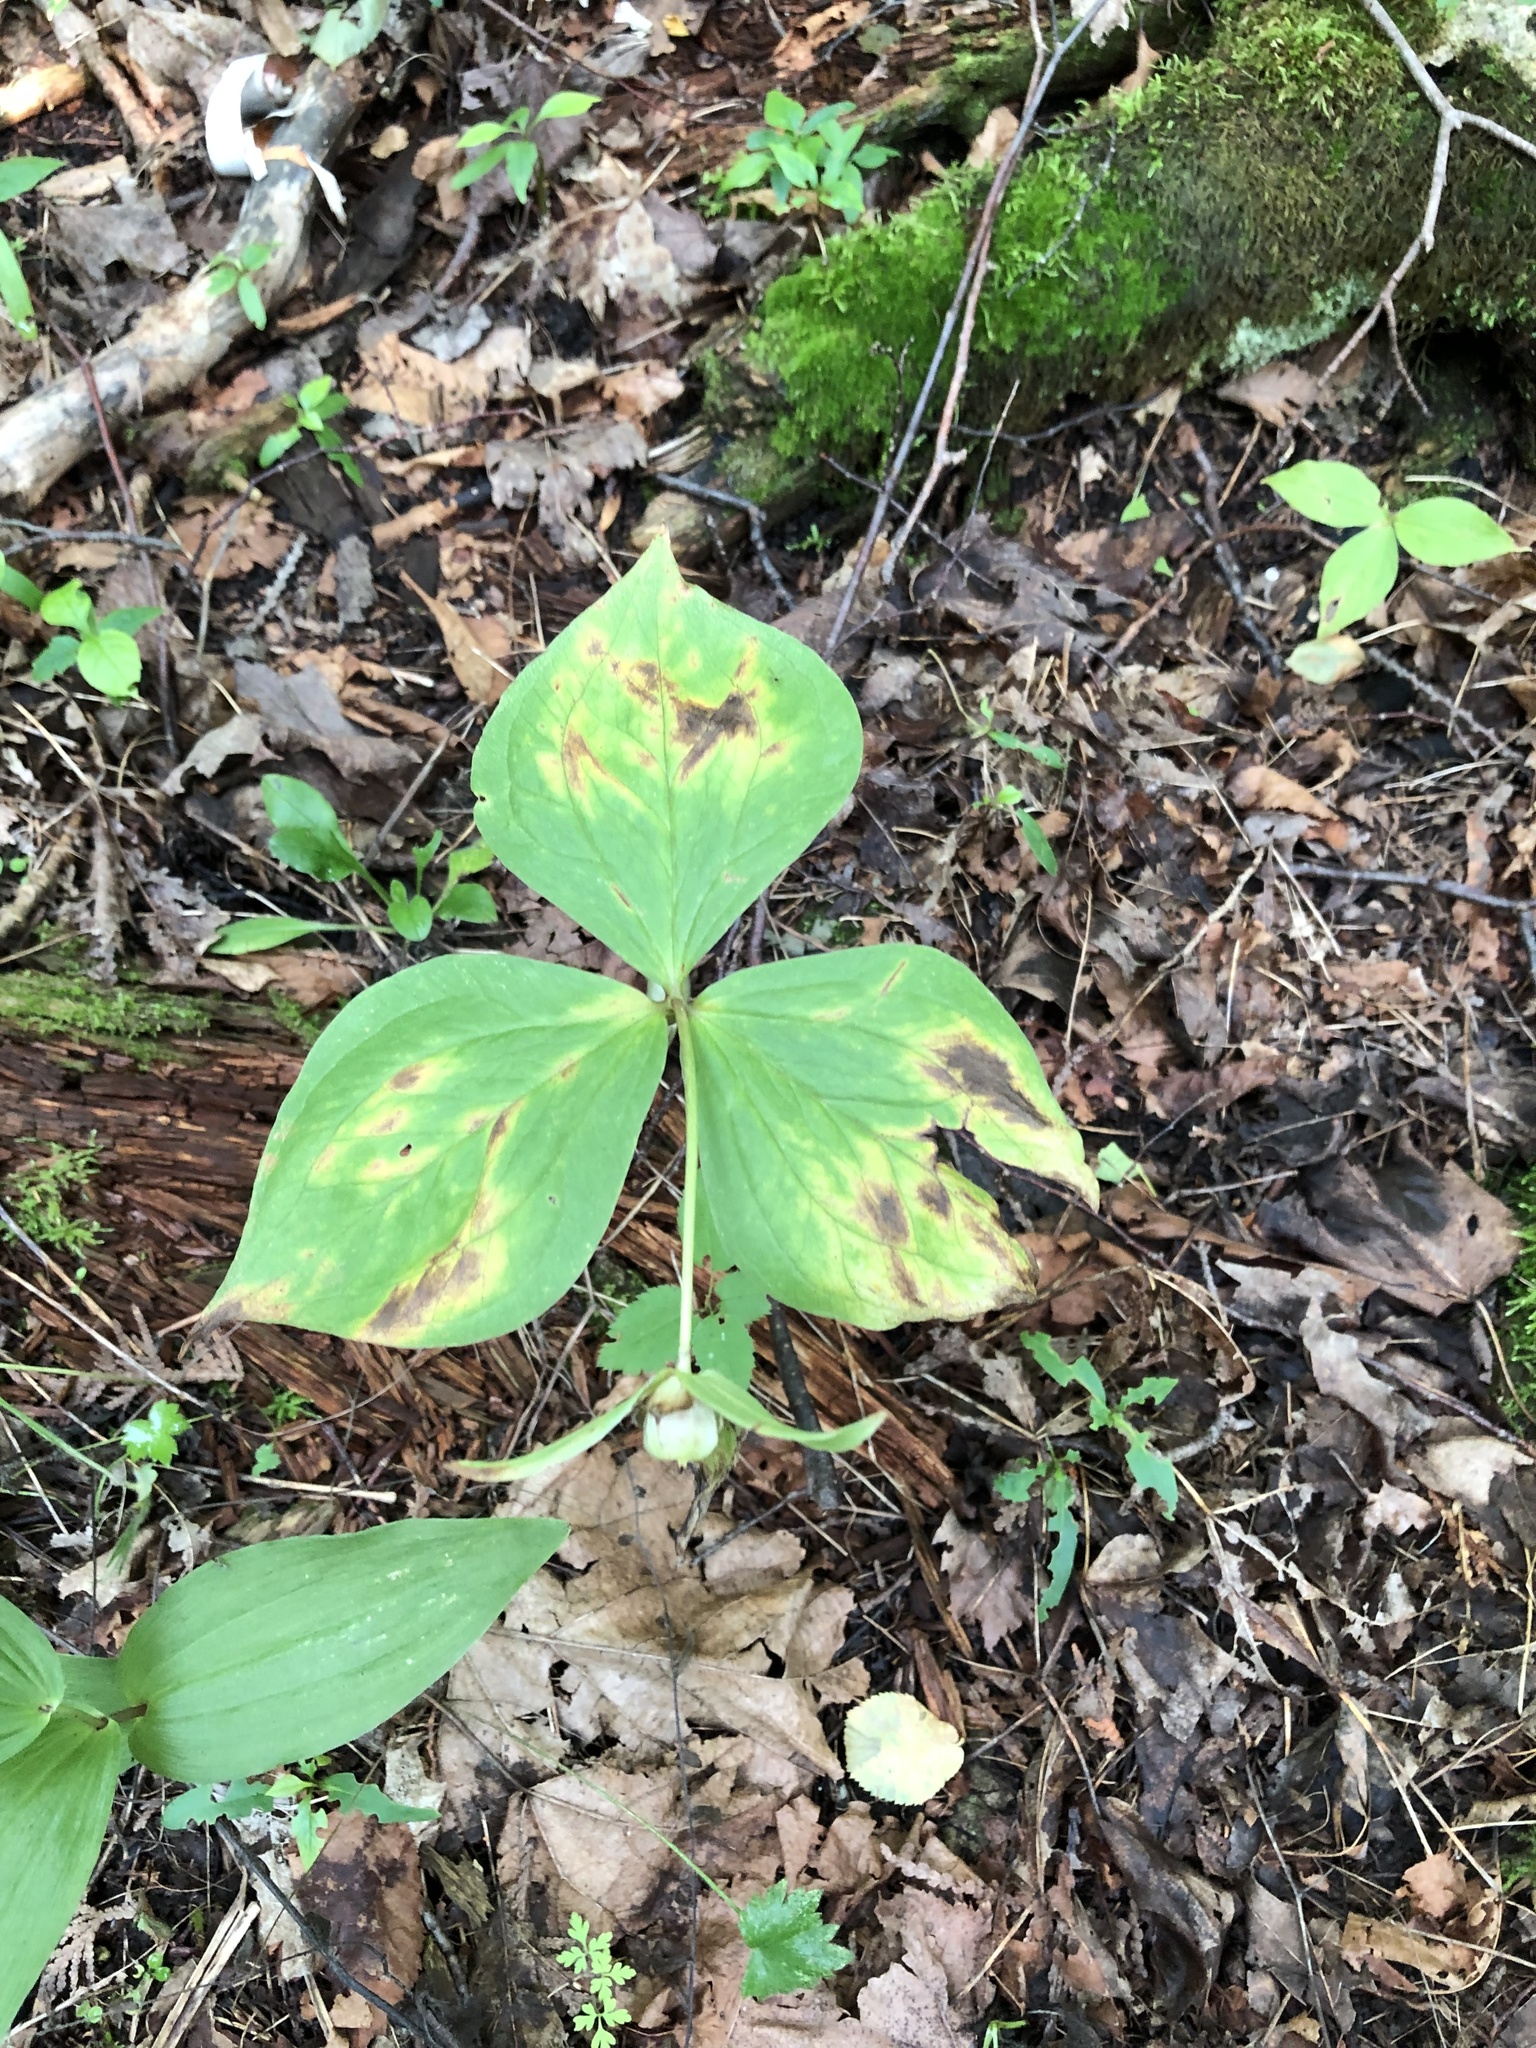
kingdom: Plantae
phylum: Tracheophyta
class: Liliopsida
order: Liliales
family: Melanthiaceae
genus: Trillium
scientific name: Trillium grandiflorum
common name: Great white trillium
